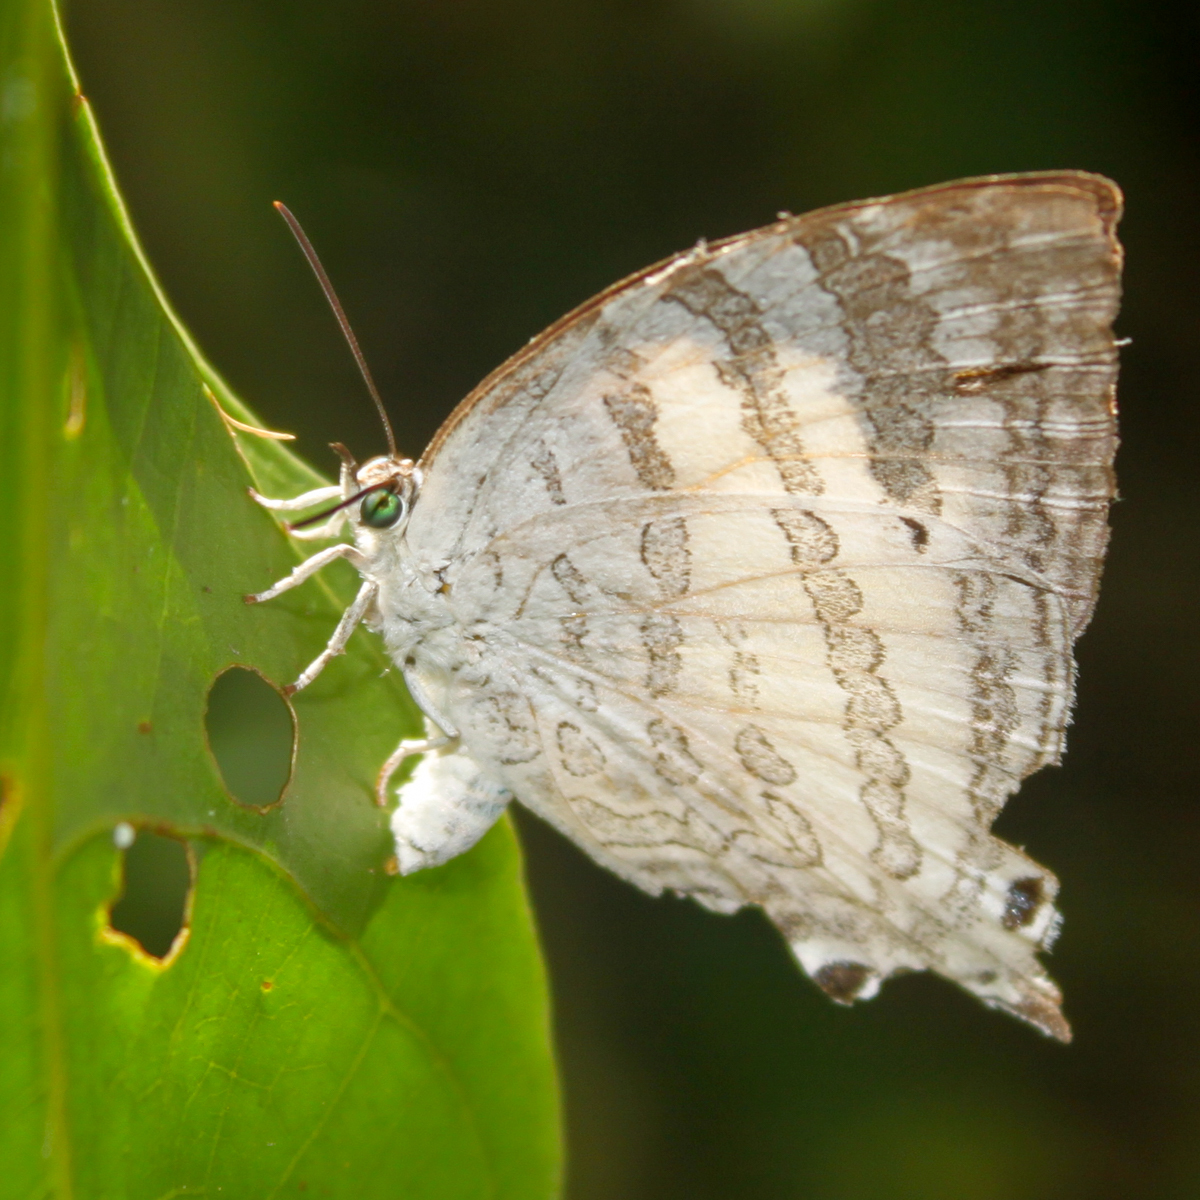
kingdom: Animalia
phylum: Arthropoda
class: Insecta
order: Lepidoptera
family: Lycaenidae
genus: Neomyrina
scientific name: Neomyrina hiemalis
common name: White imperial
